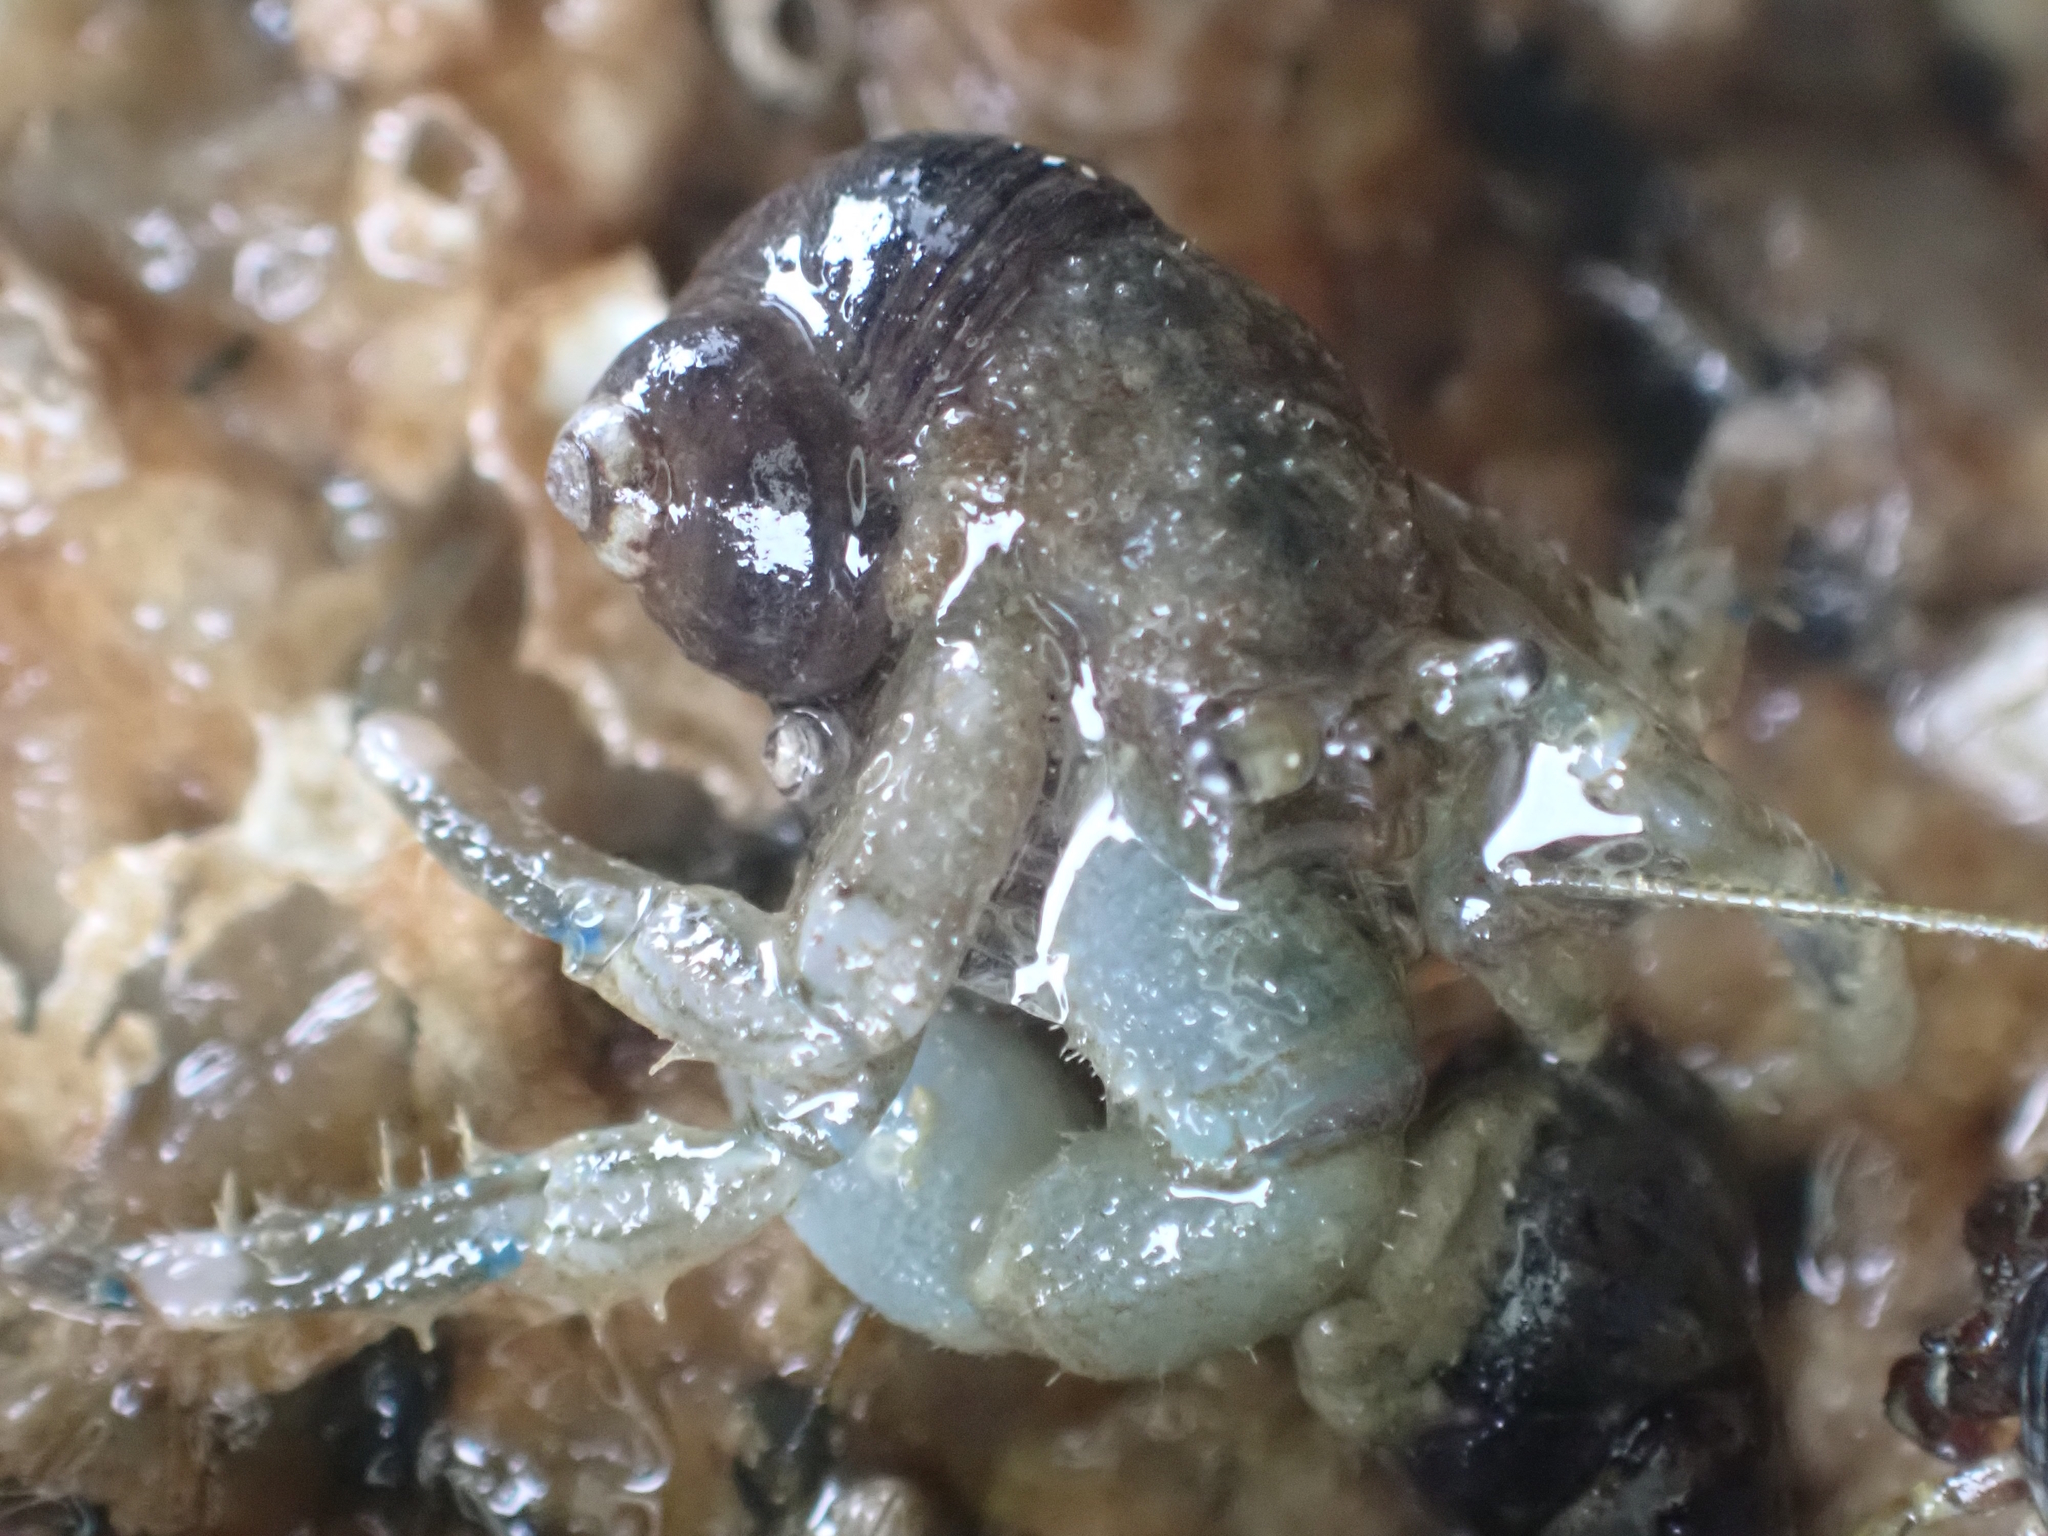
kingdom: Animalia
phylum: Arthropoda
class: Malacostraca
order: Decapoda
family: Paguridae
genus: Pagurus
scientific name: Pagurus hirsutiusculus
